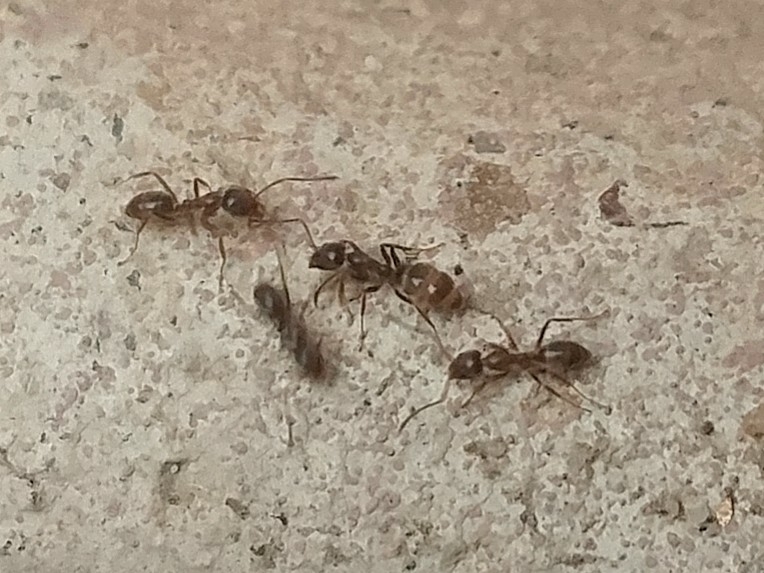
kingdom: Animalia
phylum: Arthropoda
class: Insecta
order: Hymenoptera
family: Formicidae
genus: Linepithema
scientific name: Linepithema humile
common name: Argentine ant
